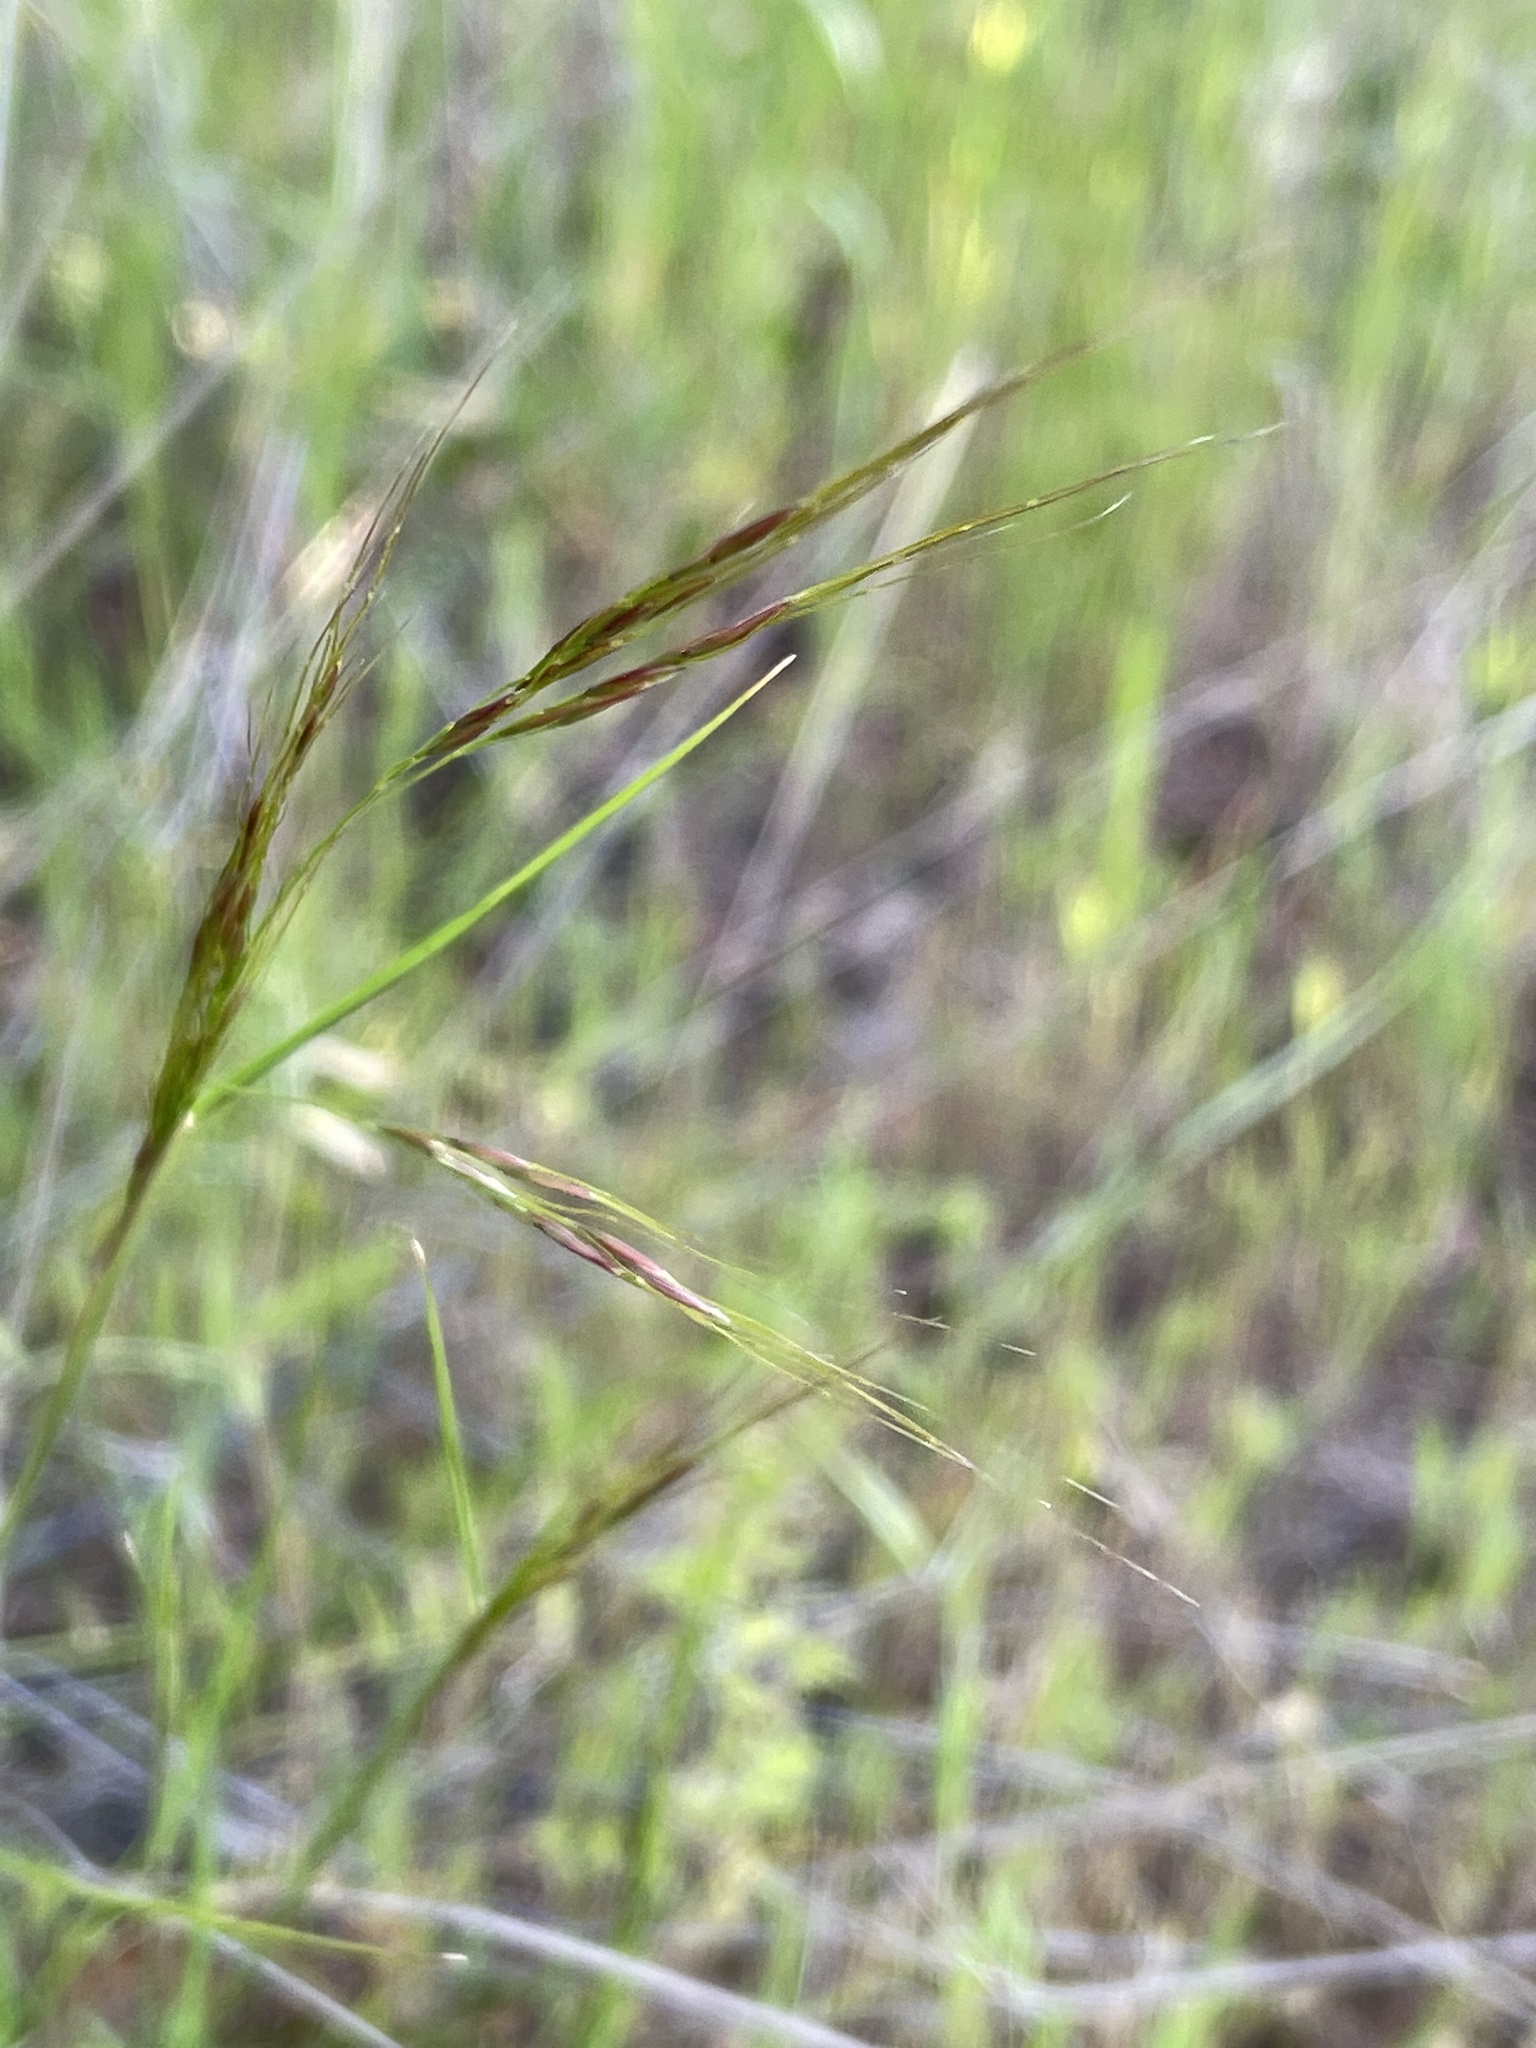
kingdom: Plantae
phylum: Tracheophyta
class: Liliopsida
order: Poales
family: Poaceae
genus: Nassella
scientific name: Nassella lepida
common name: Foothill needlegrass
